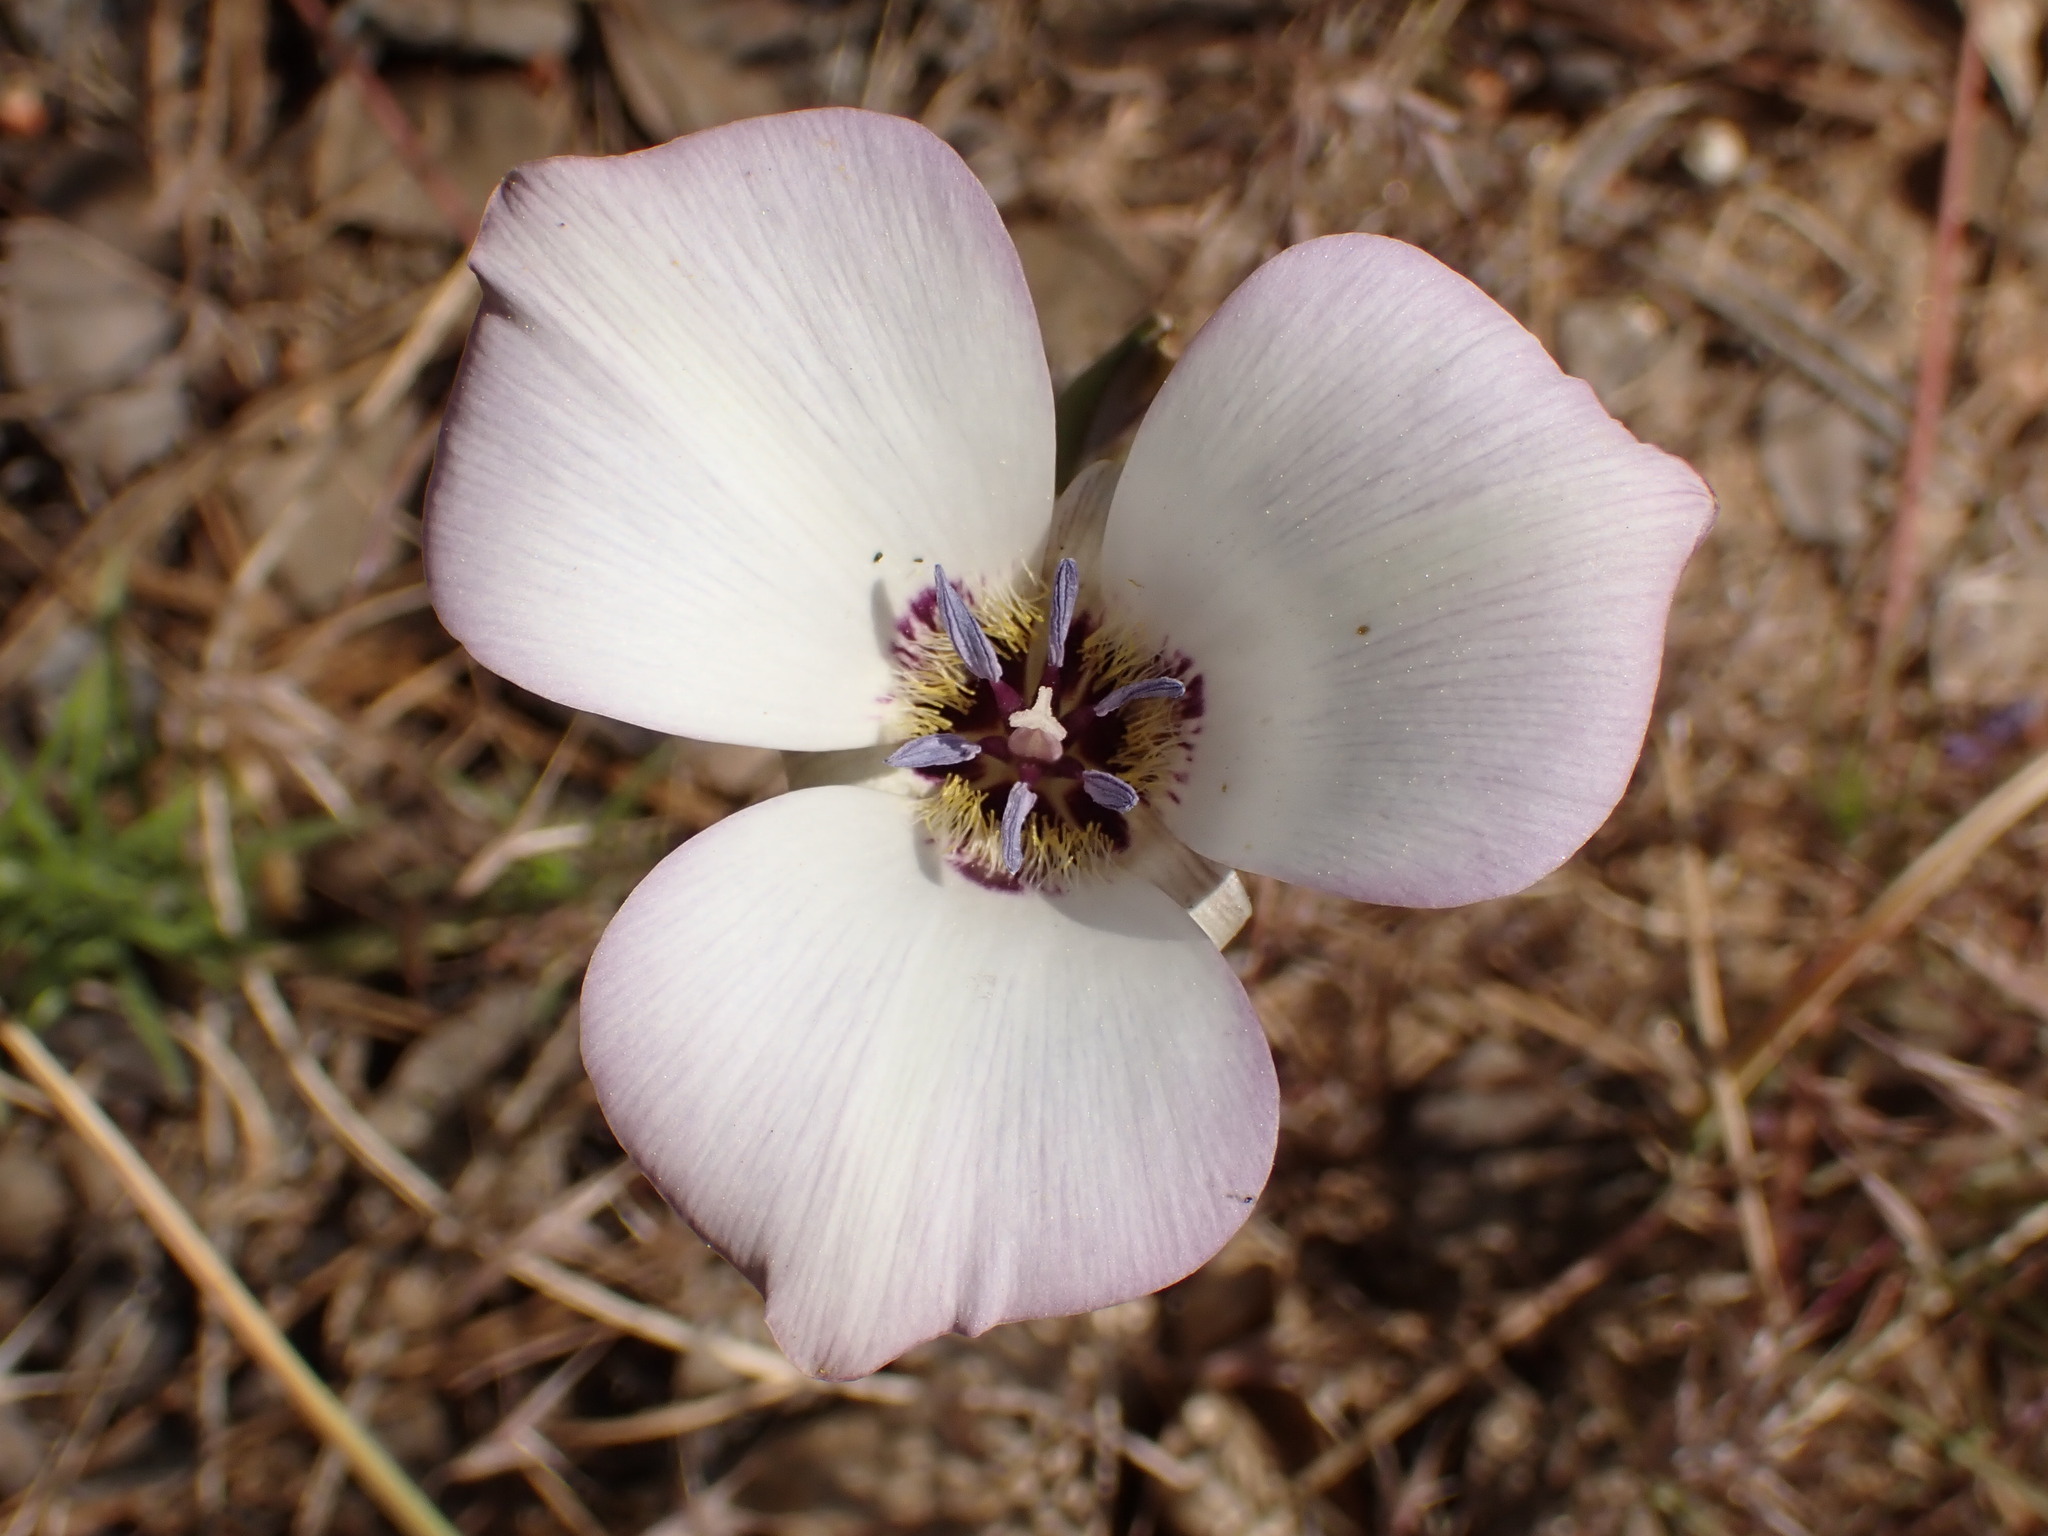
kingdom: Plantae
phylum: Tracheophyta
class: Liliopsida
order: Liliales
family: Liliaceae
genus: Calochortus
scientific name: Calochortus invenustus
